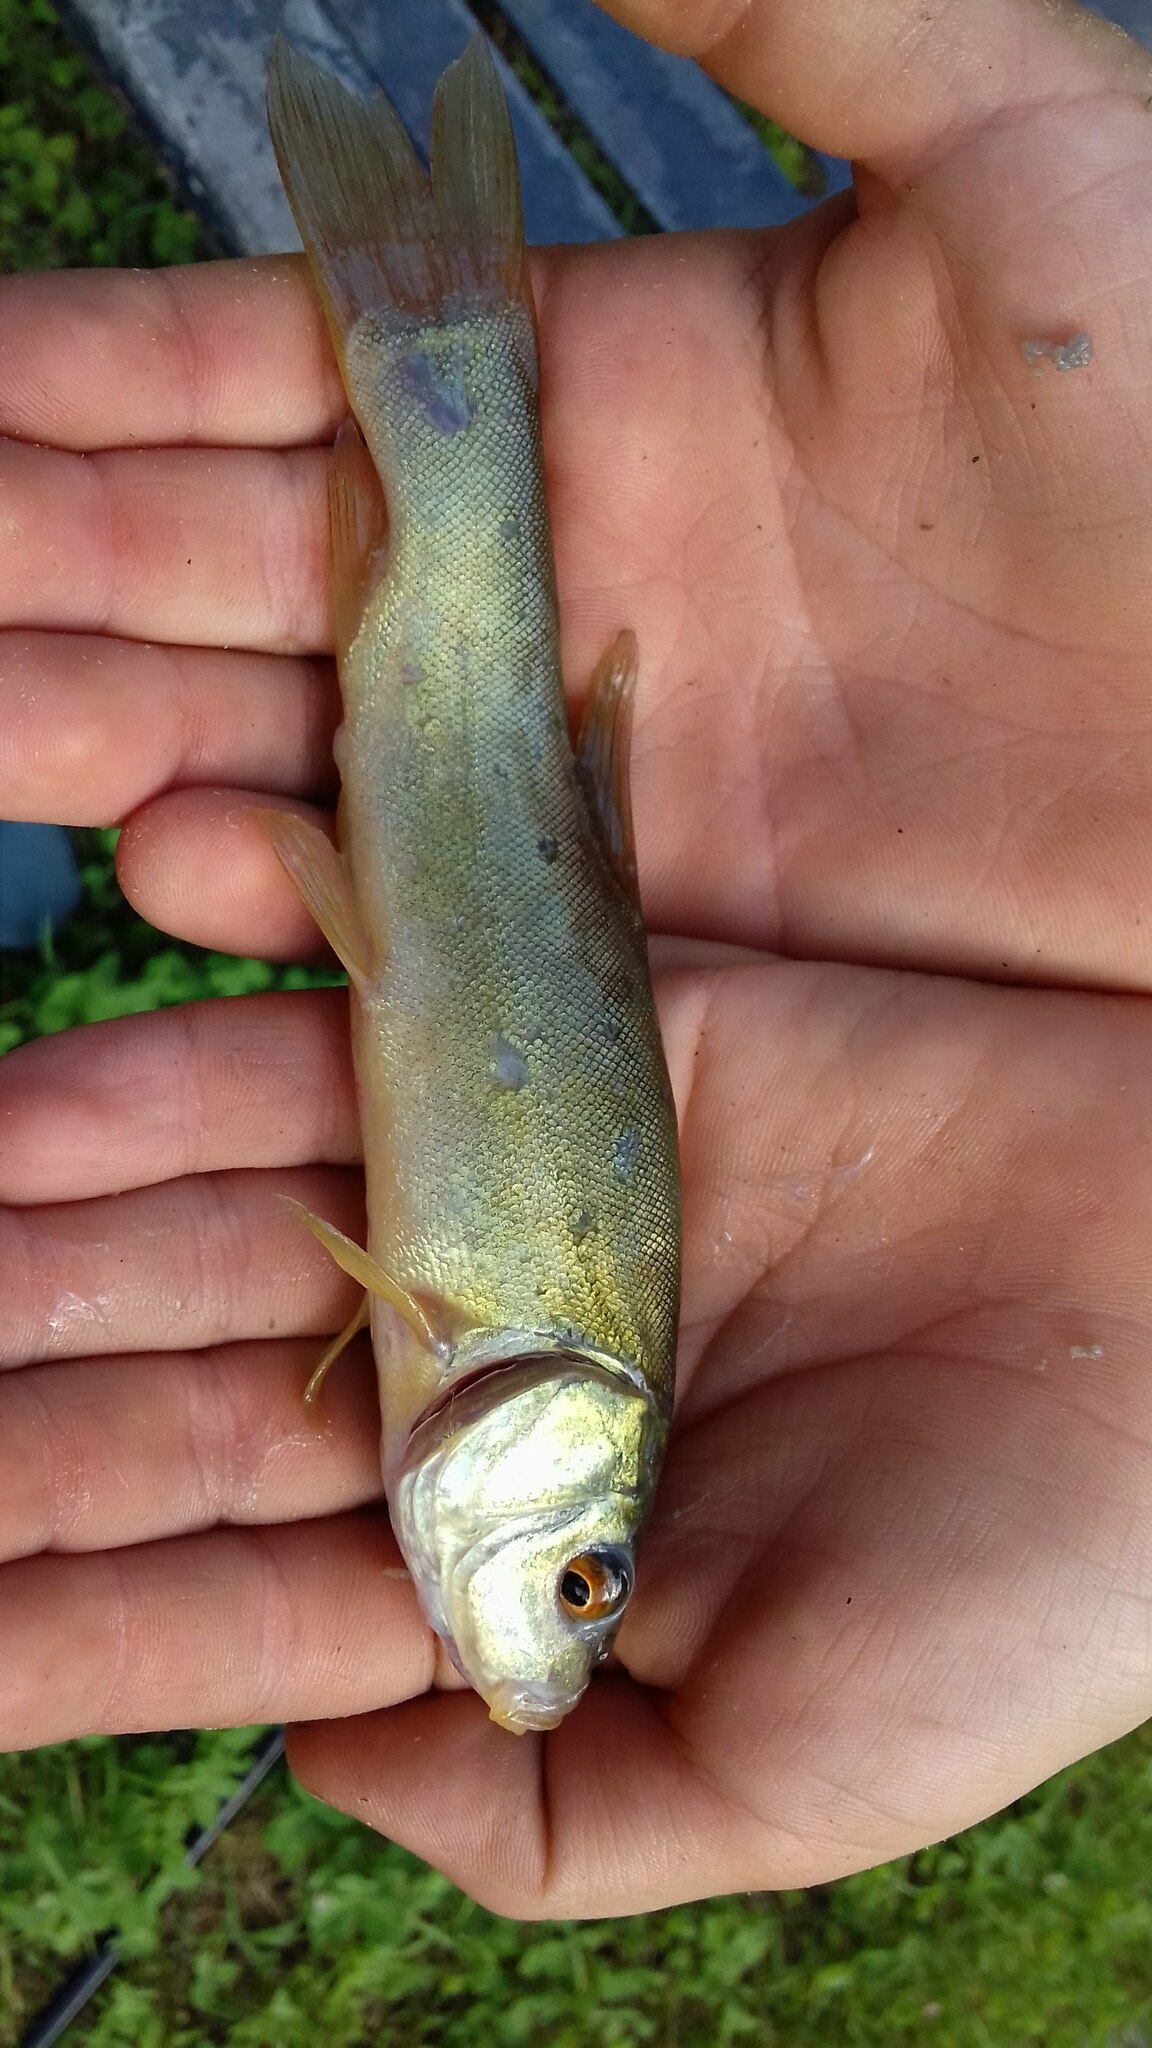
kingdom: Animalia
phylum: Chordata
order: Cypriniformes
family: Cyprinidae
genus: Tinca
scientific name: Tinca tinca
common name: Tench
